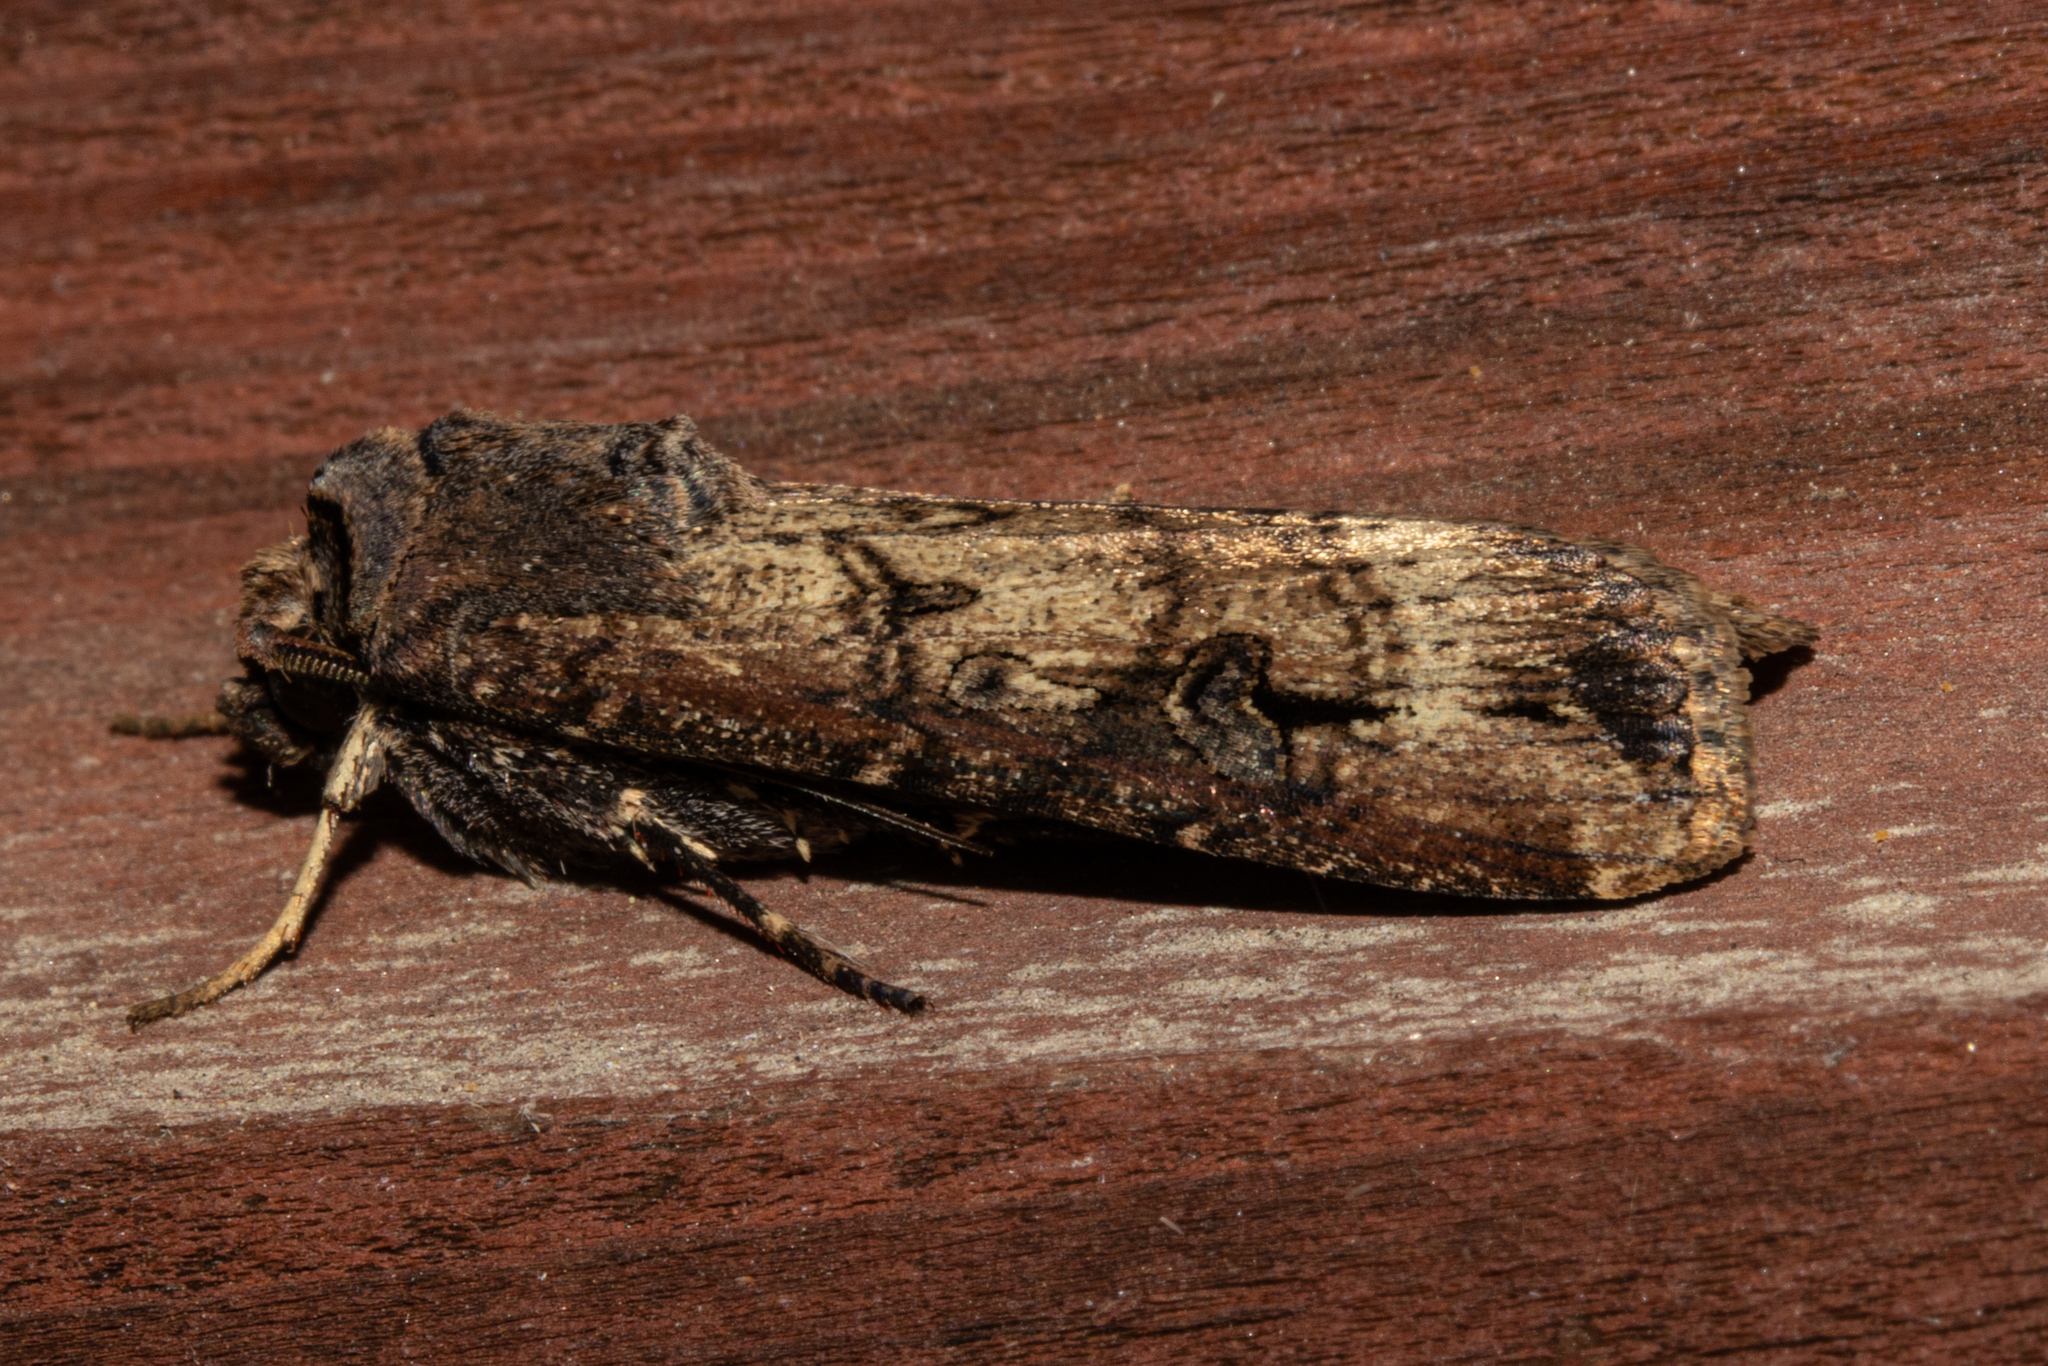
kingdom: Animalia
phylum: Arthropoda
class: Insecta
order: Lepidoptera
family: Noctuidae
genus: Agrotis
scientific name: Agrotis ipsilon
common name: Dark sword-grass
